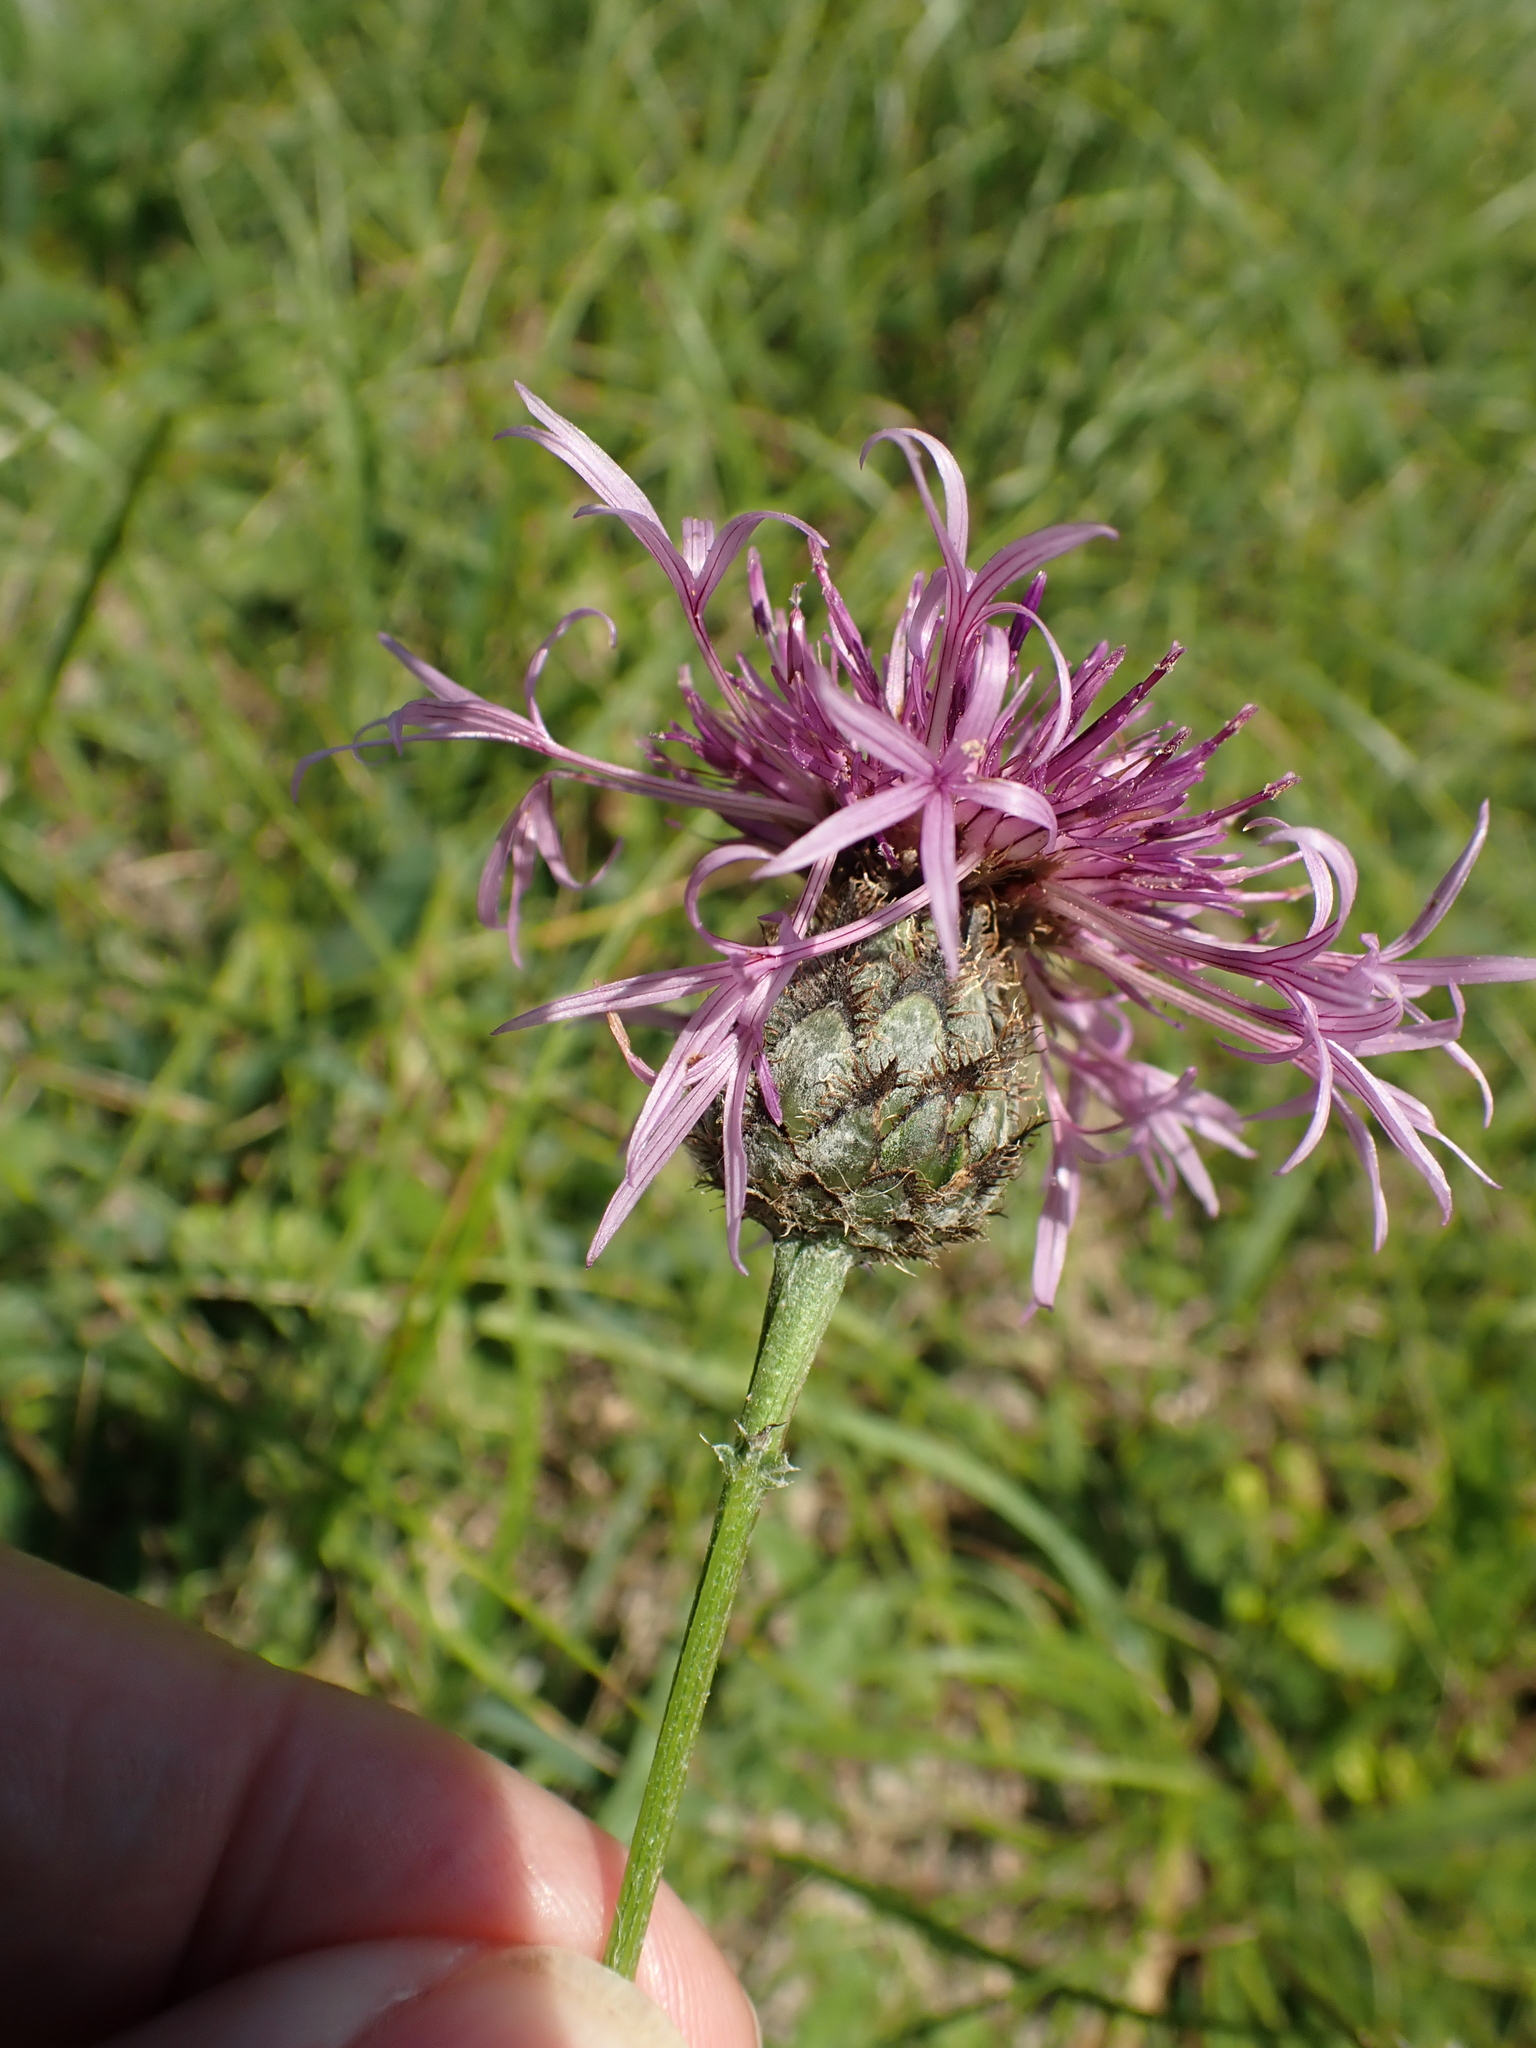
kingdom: Plantae
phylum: Tracheophyta
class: Magnoliopsida
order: Asterales
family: Asteraceae
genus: Centaurea
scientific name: Centaurea scabiosa
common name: Greater knapweed
